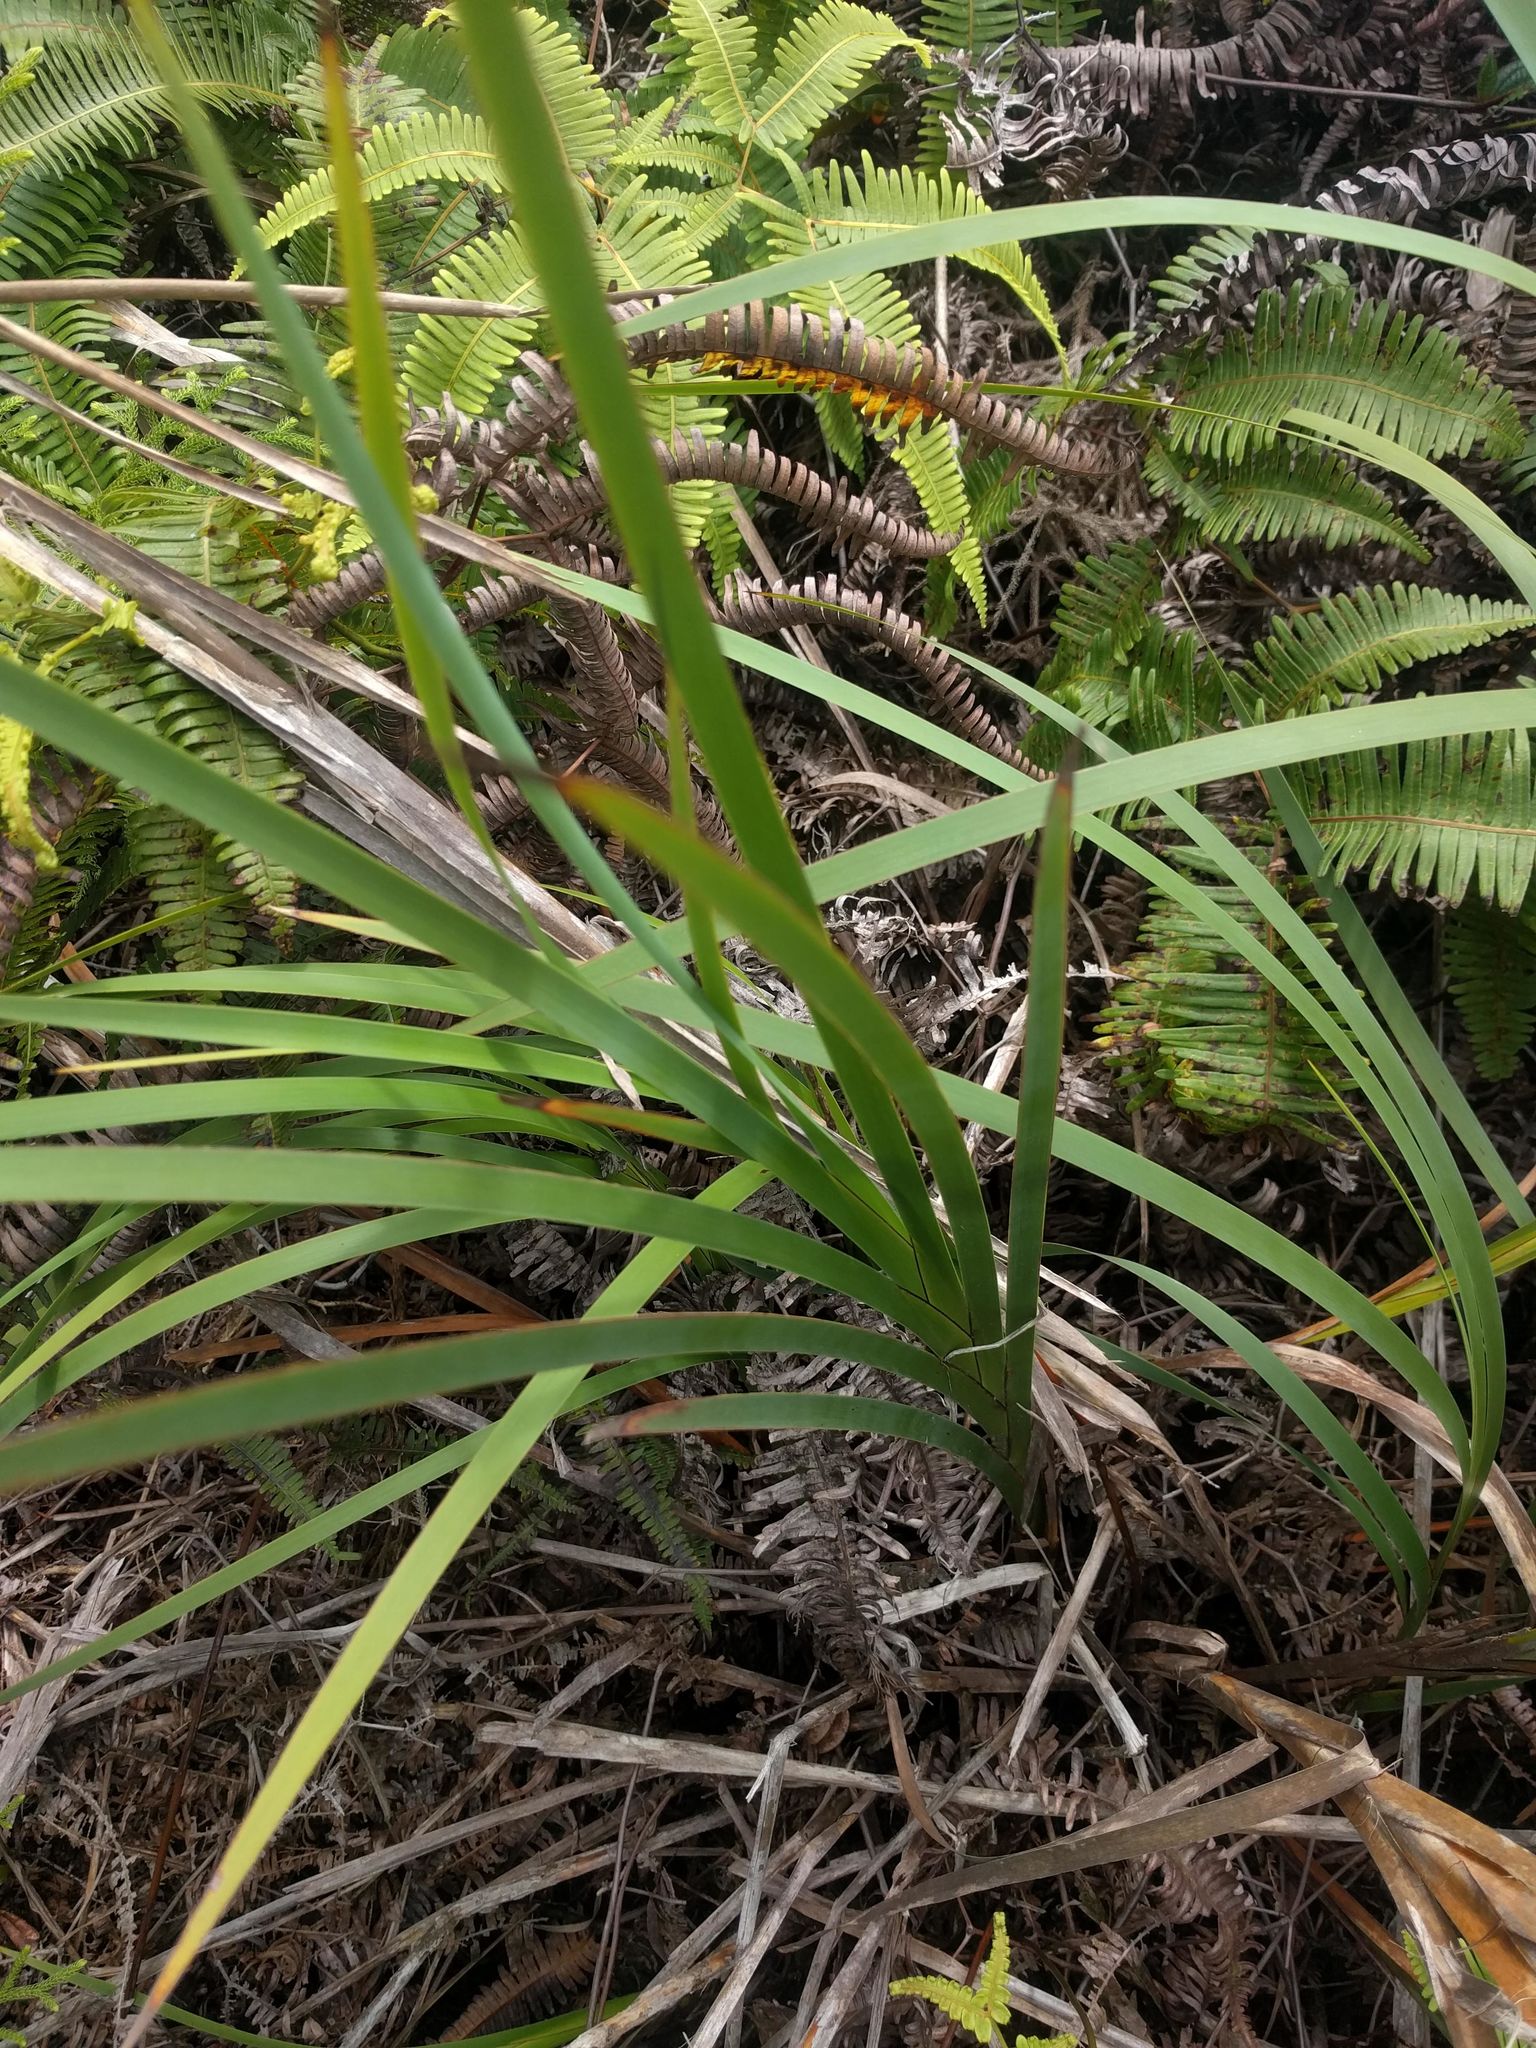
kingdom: Plantae
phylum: Tracheophyta
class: Liliopsida
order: Poales
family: Cyperaceae
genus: Machaerina
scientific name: Machaerina mariscoides
